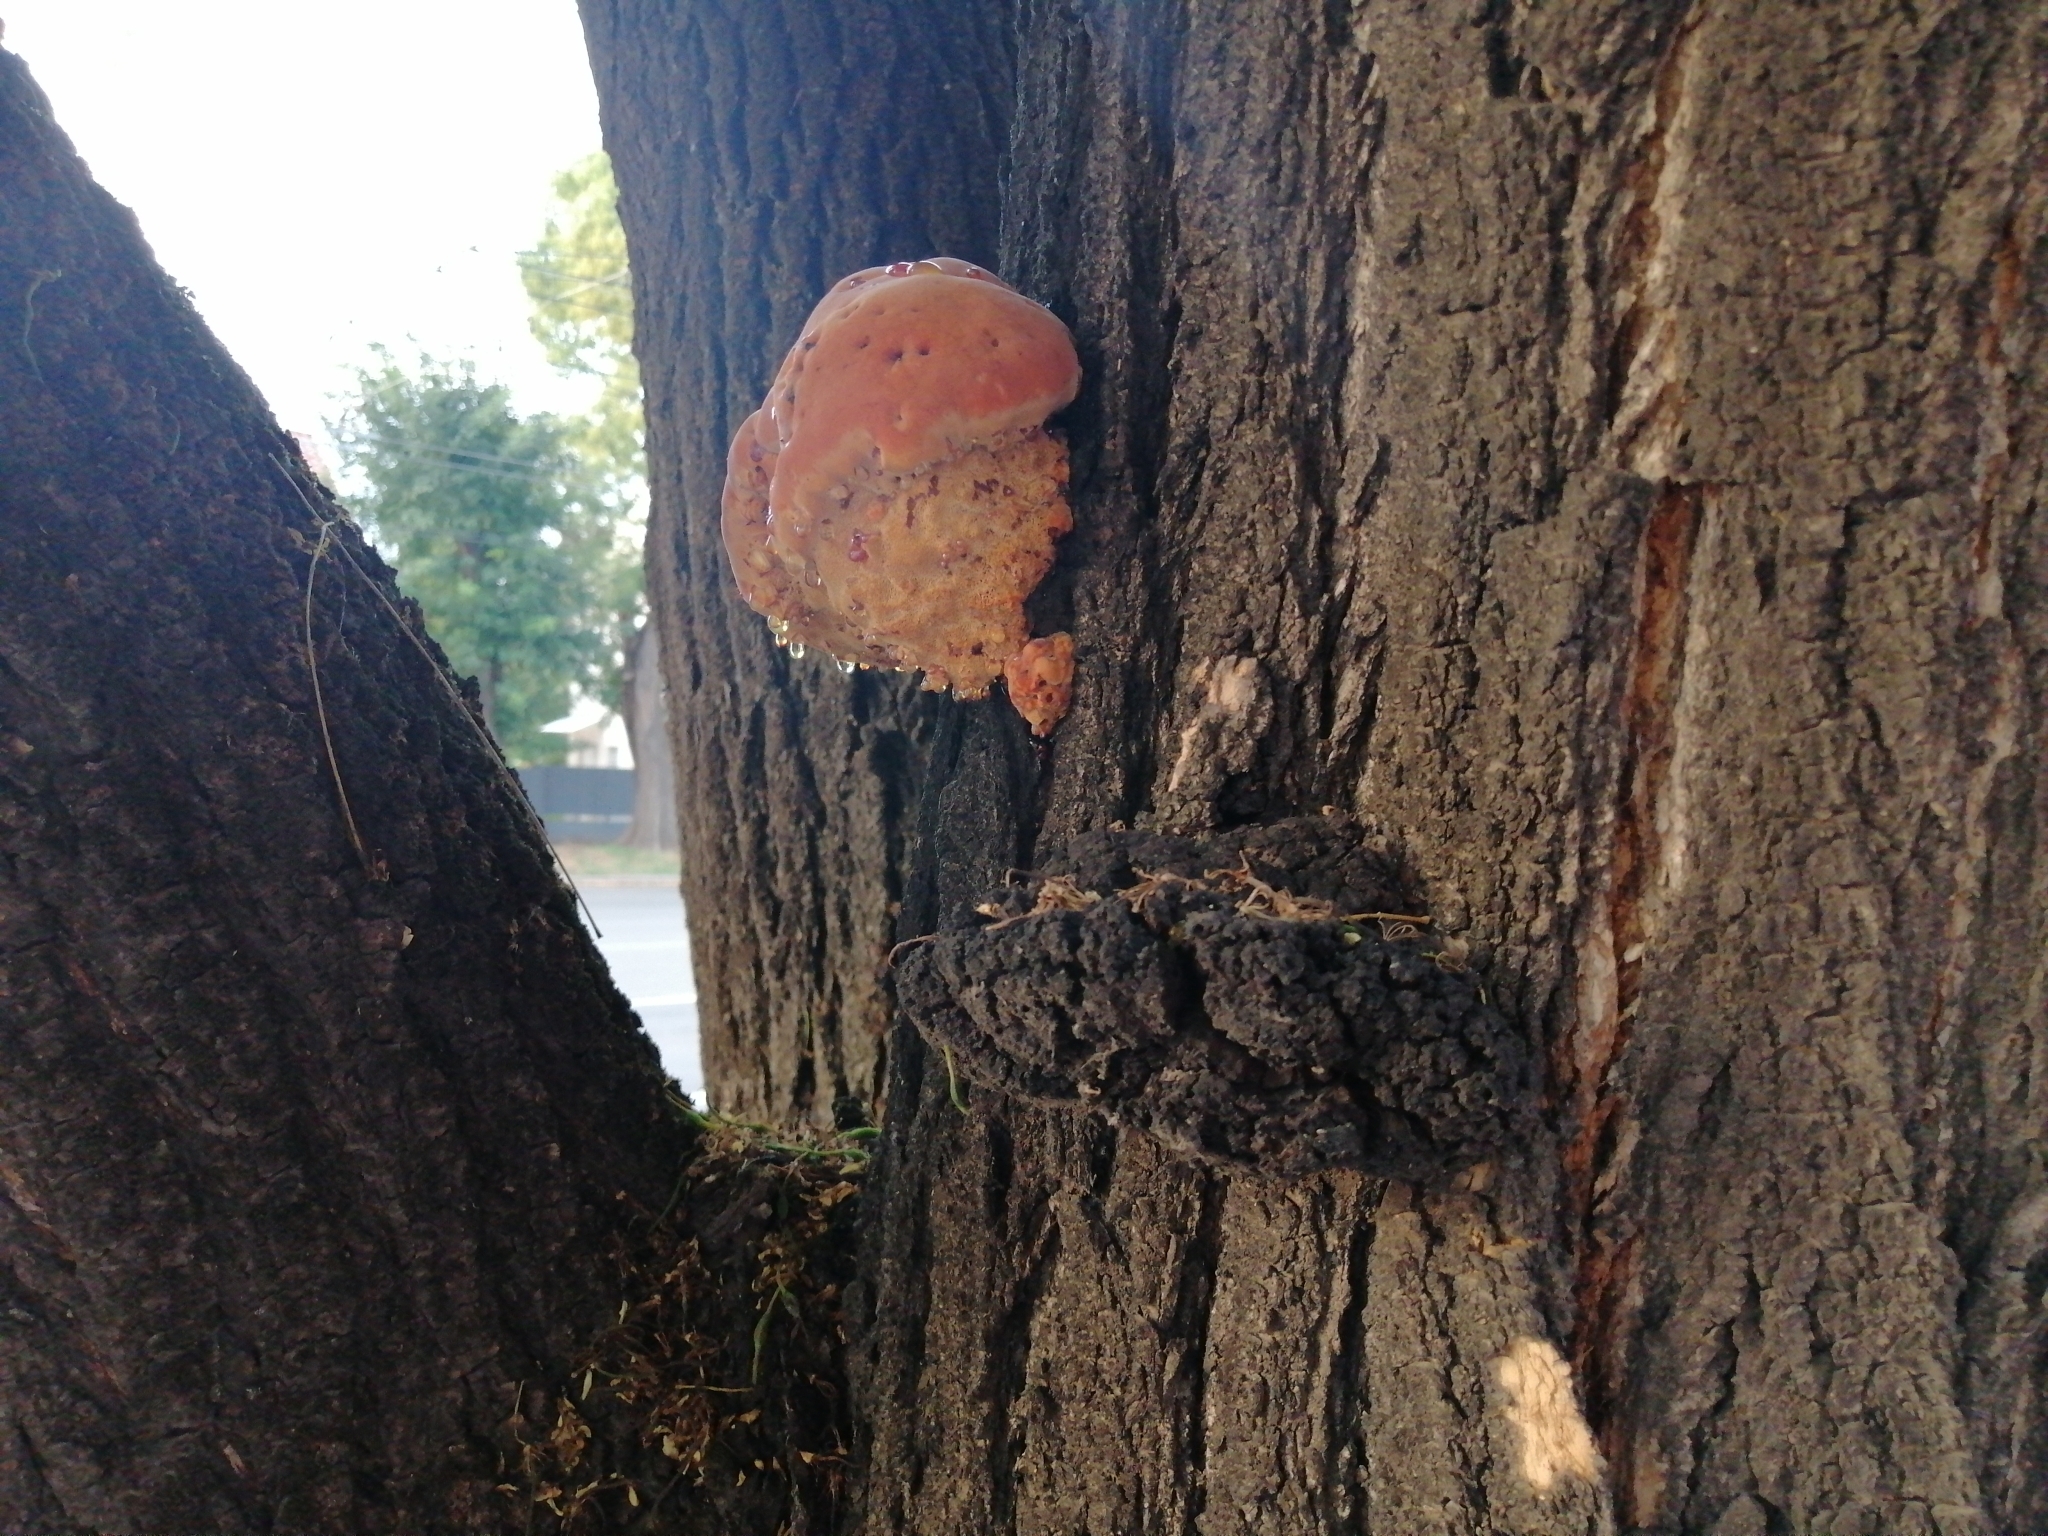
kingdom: Fungi
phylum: Basidiomycota
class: Agaricomycetes
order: Hymenochaetales
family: Hymenochaetaceae
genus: Inonotus
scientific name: Inonotus hispidus
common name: Shaggy bracket
